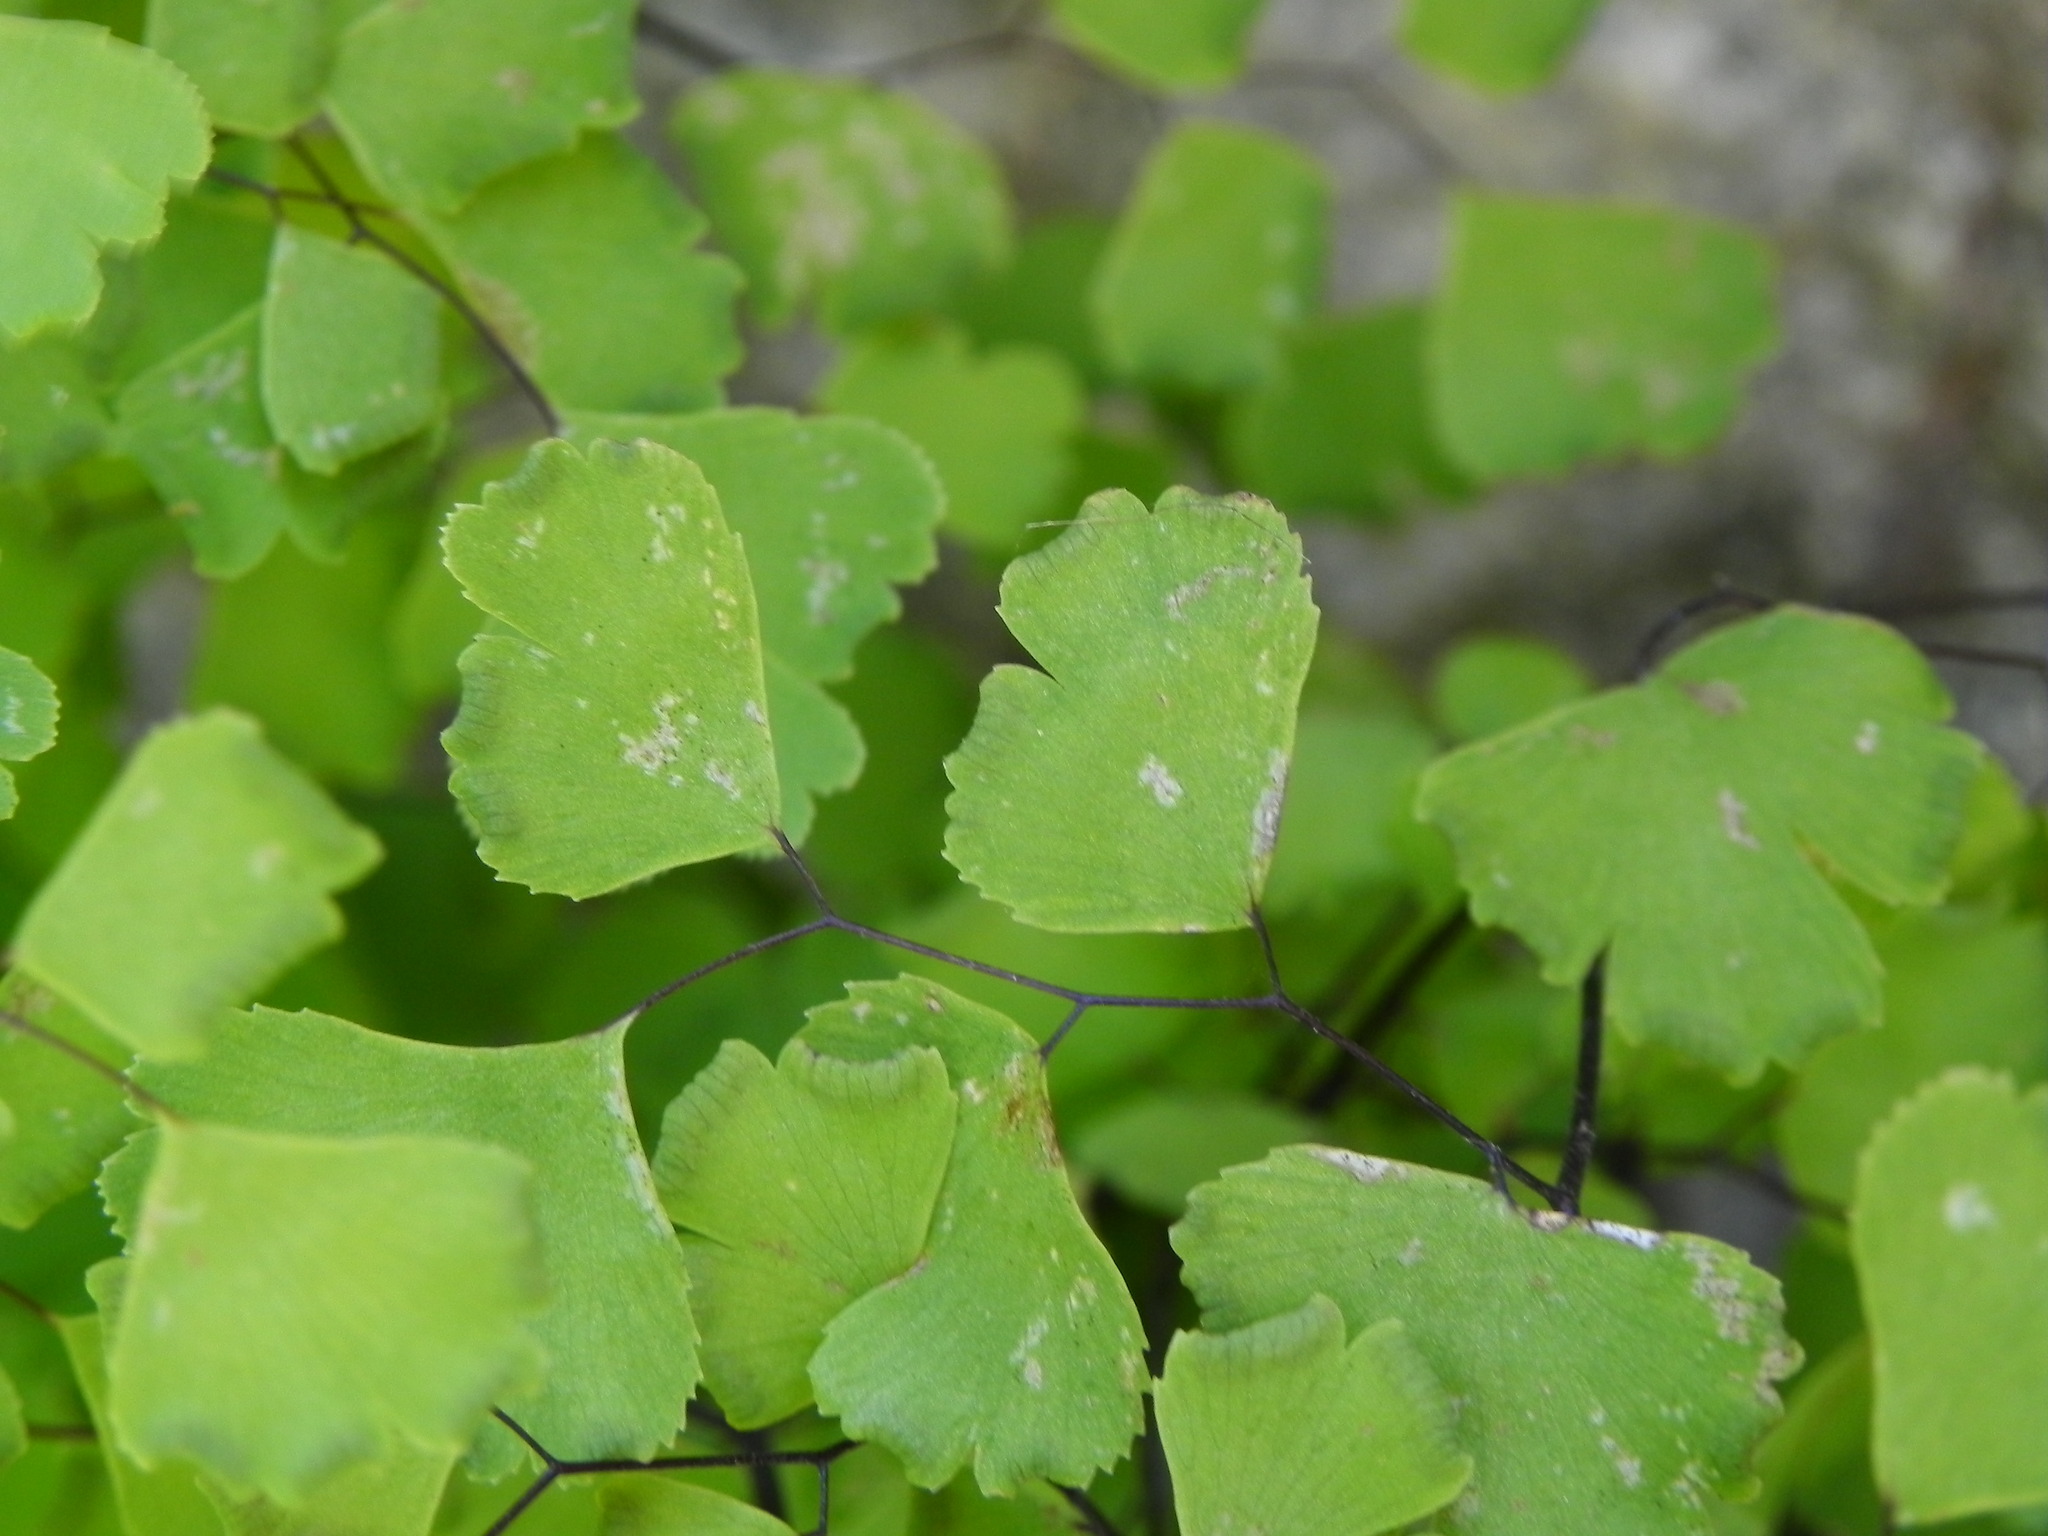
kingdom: Plantae
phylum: Tracheophyta
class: Polypodiopsida
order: Polypodiales
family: Pteridaceae
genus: Adiantum
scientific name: Adiantum capillus-veneris
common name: Maidenhair fern
